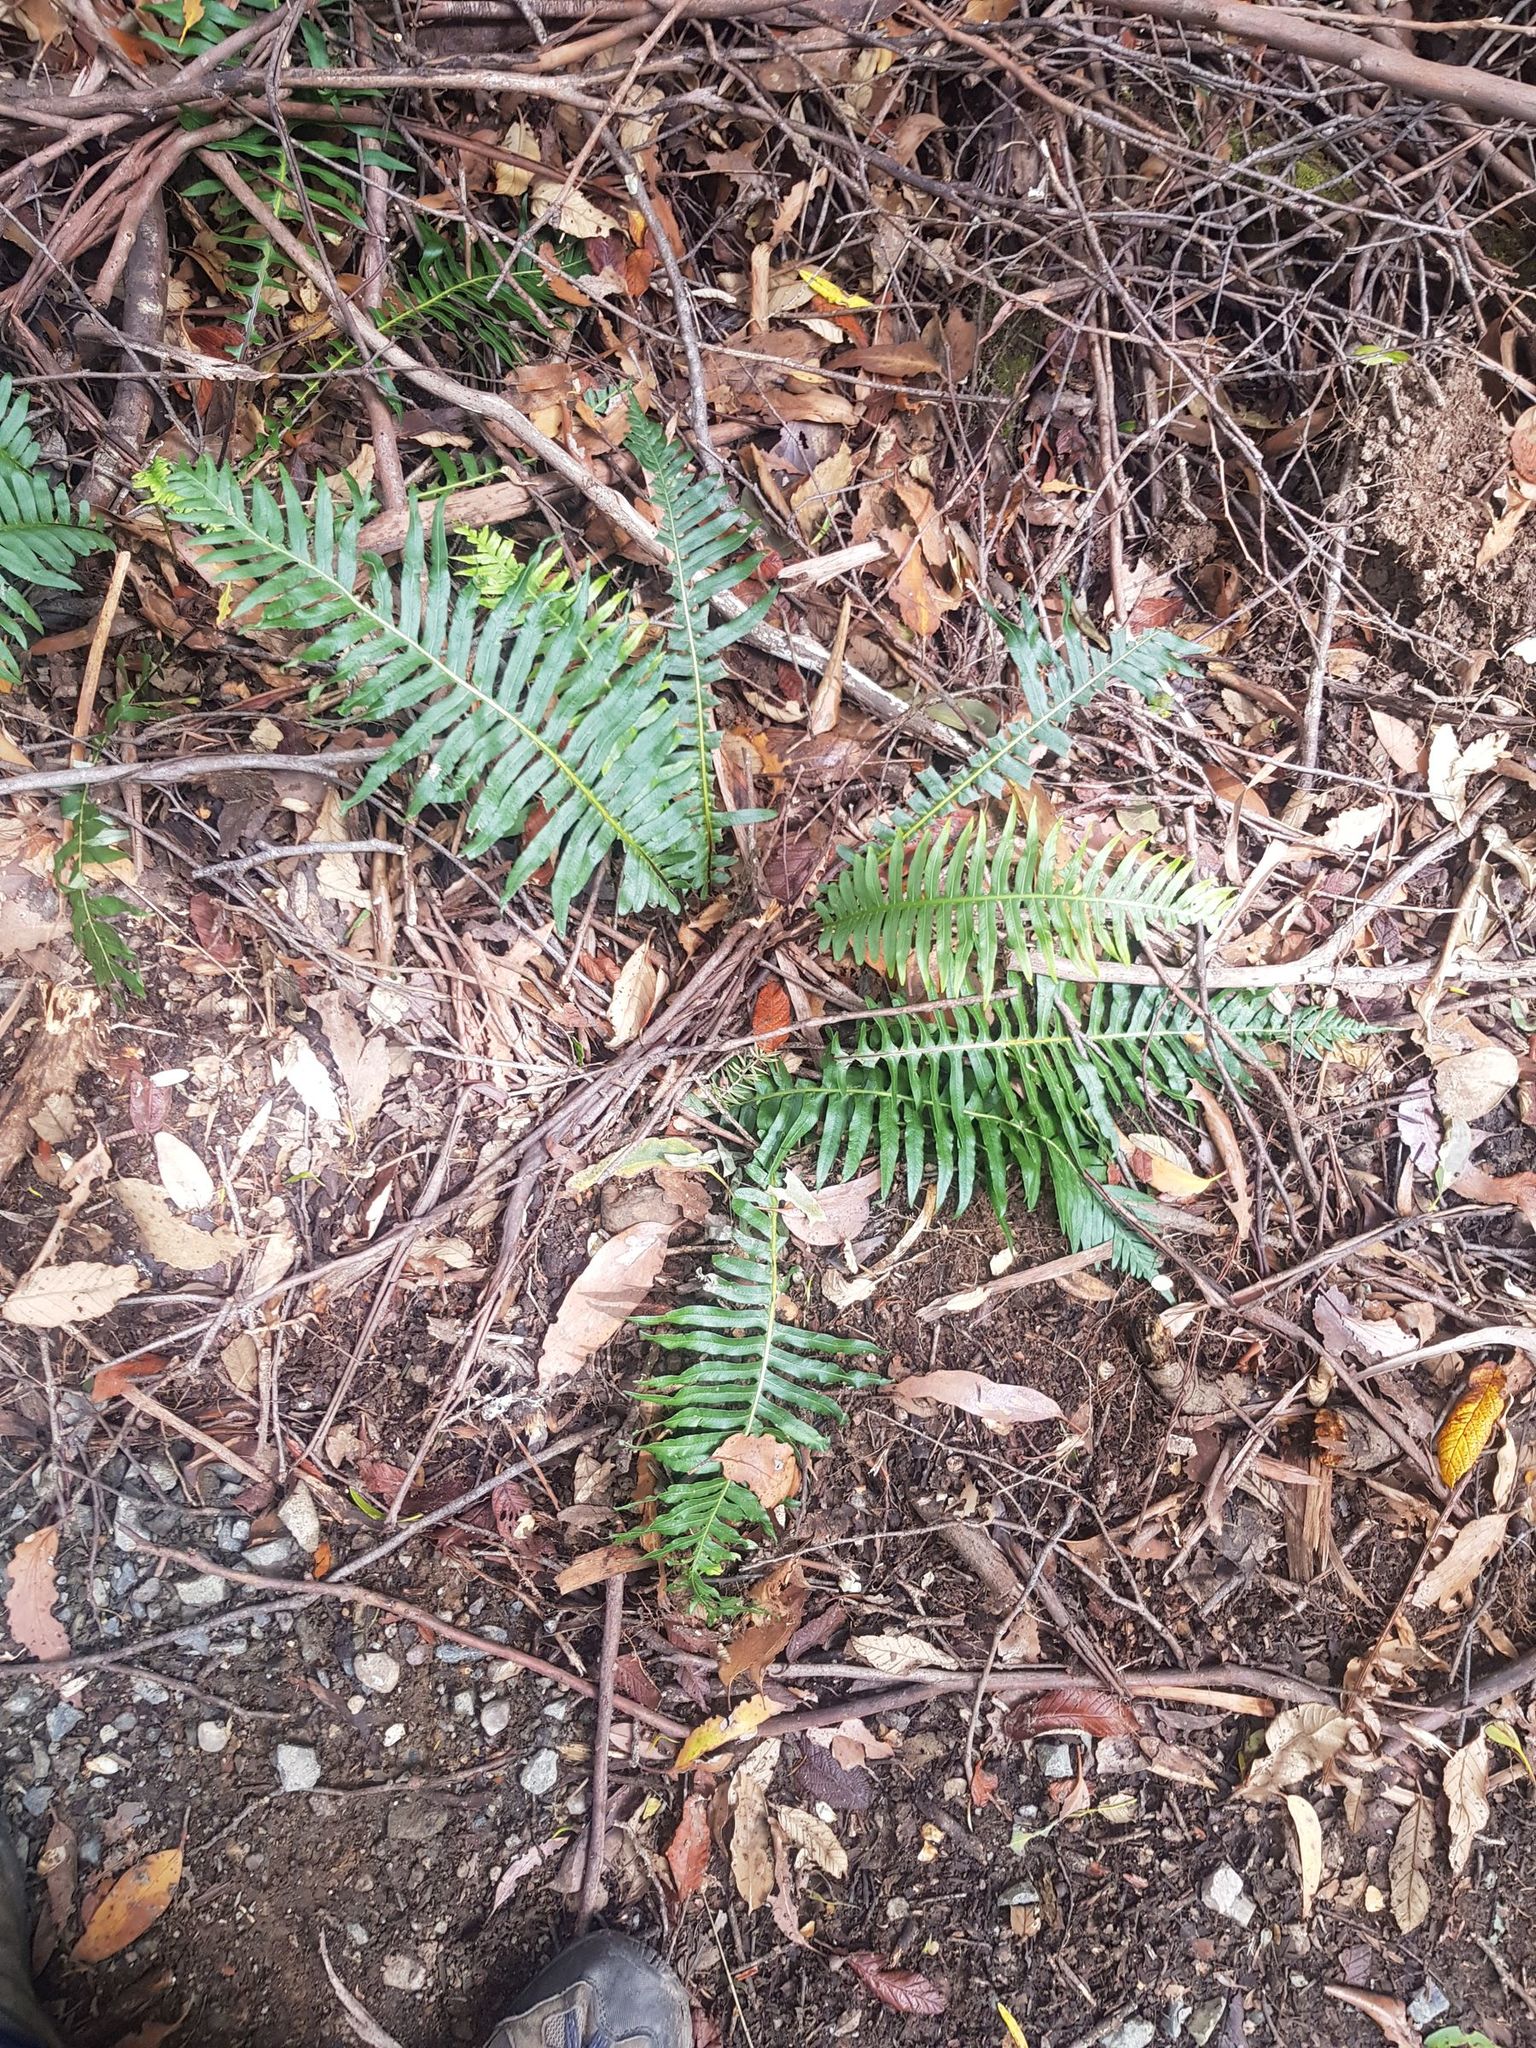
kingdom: Plantae
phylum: Tracheophyta
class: Polypodiopsida
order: Polypodiales
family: Blechnaceae
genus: Lomaria
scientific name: Lomaria nuda
